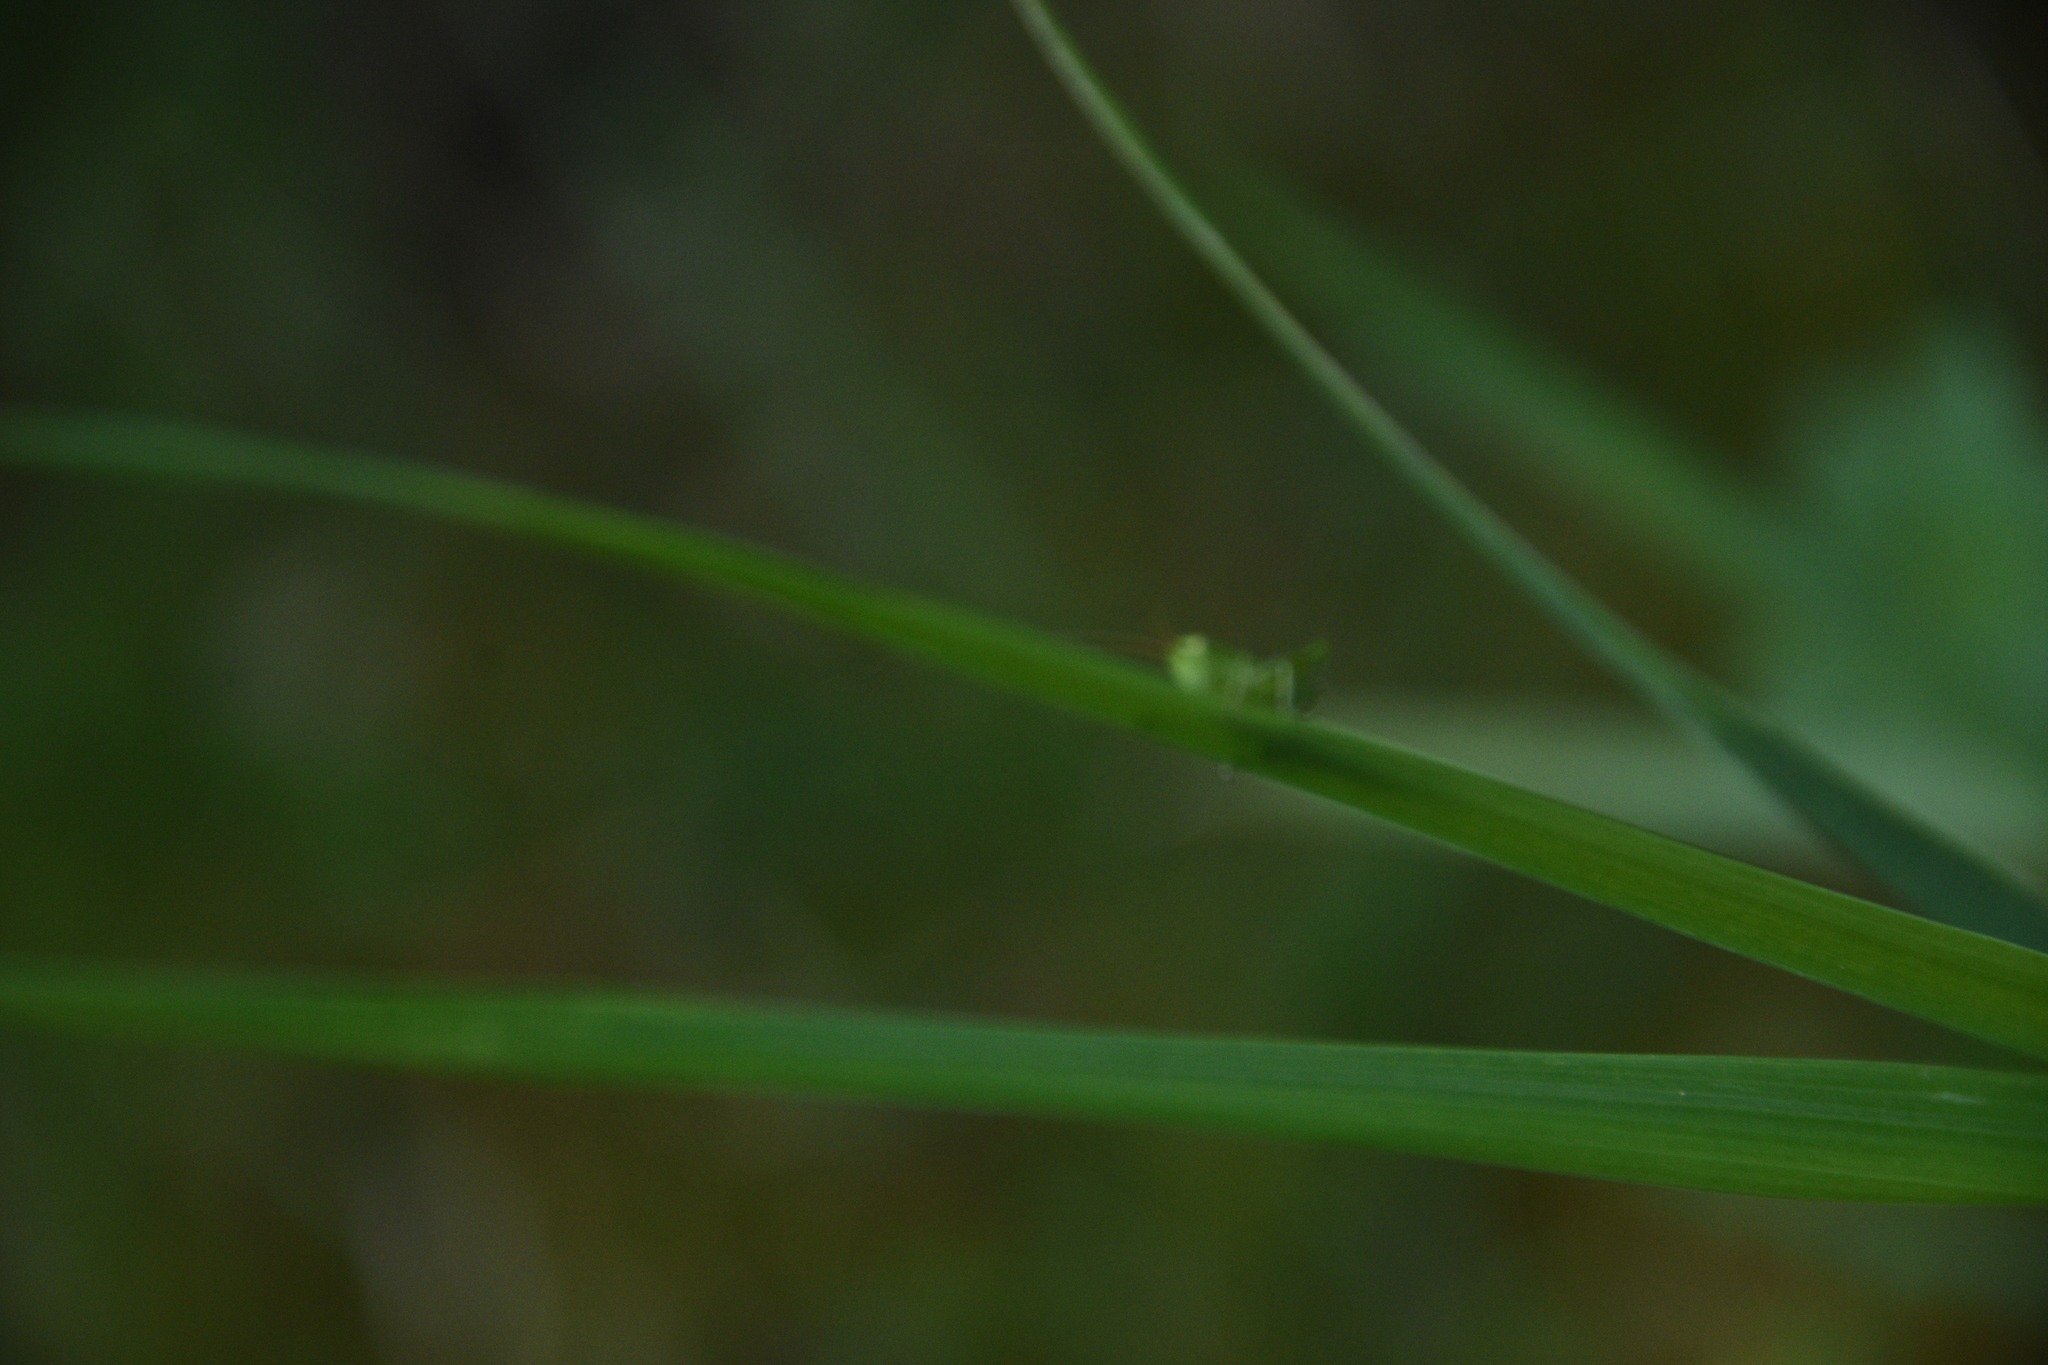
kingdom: Animalia
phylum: Arthropoda
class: Insecta
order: Orthoptera
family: Tettigoniidae
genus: Tettigonia
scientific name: Tettigonia viridissima
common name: Great green bush-cricket
